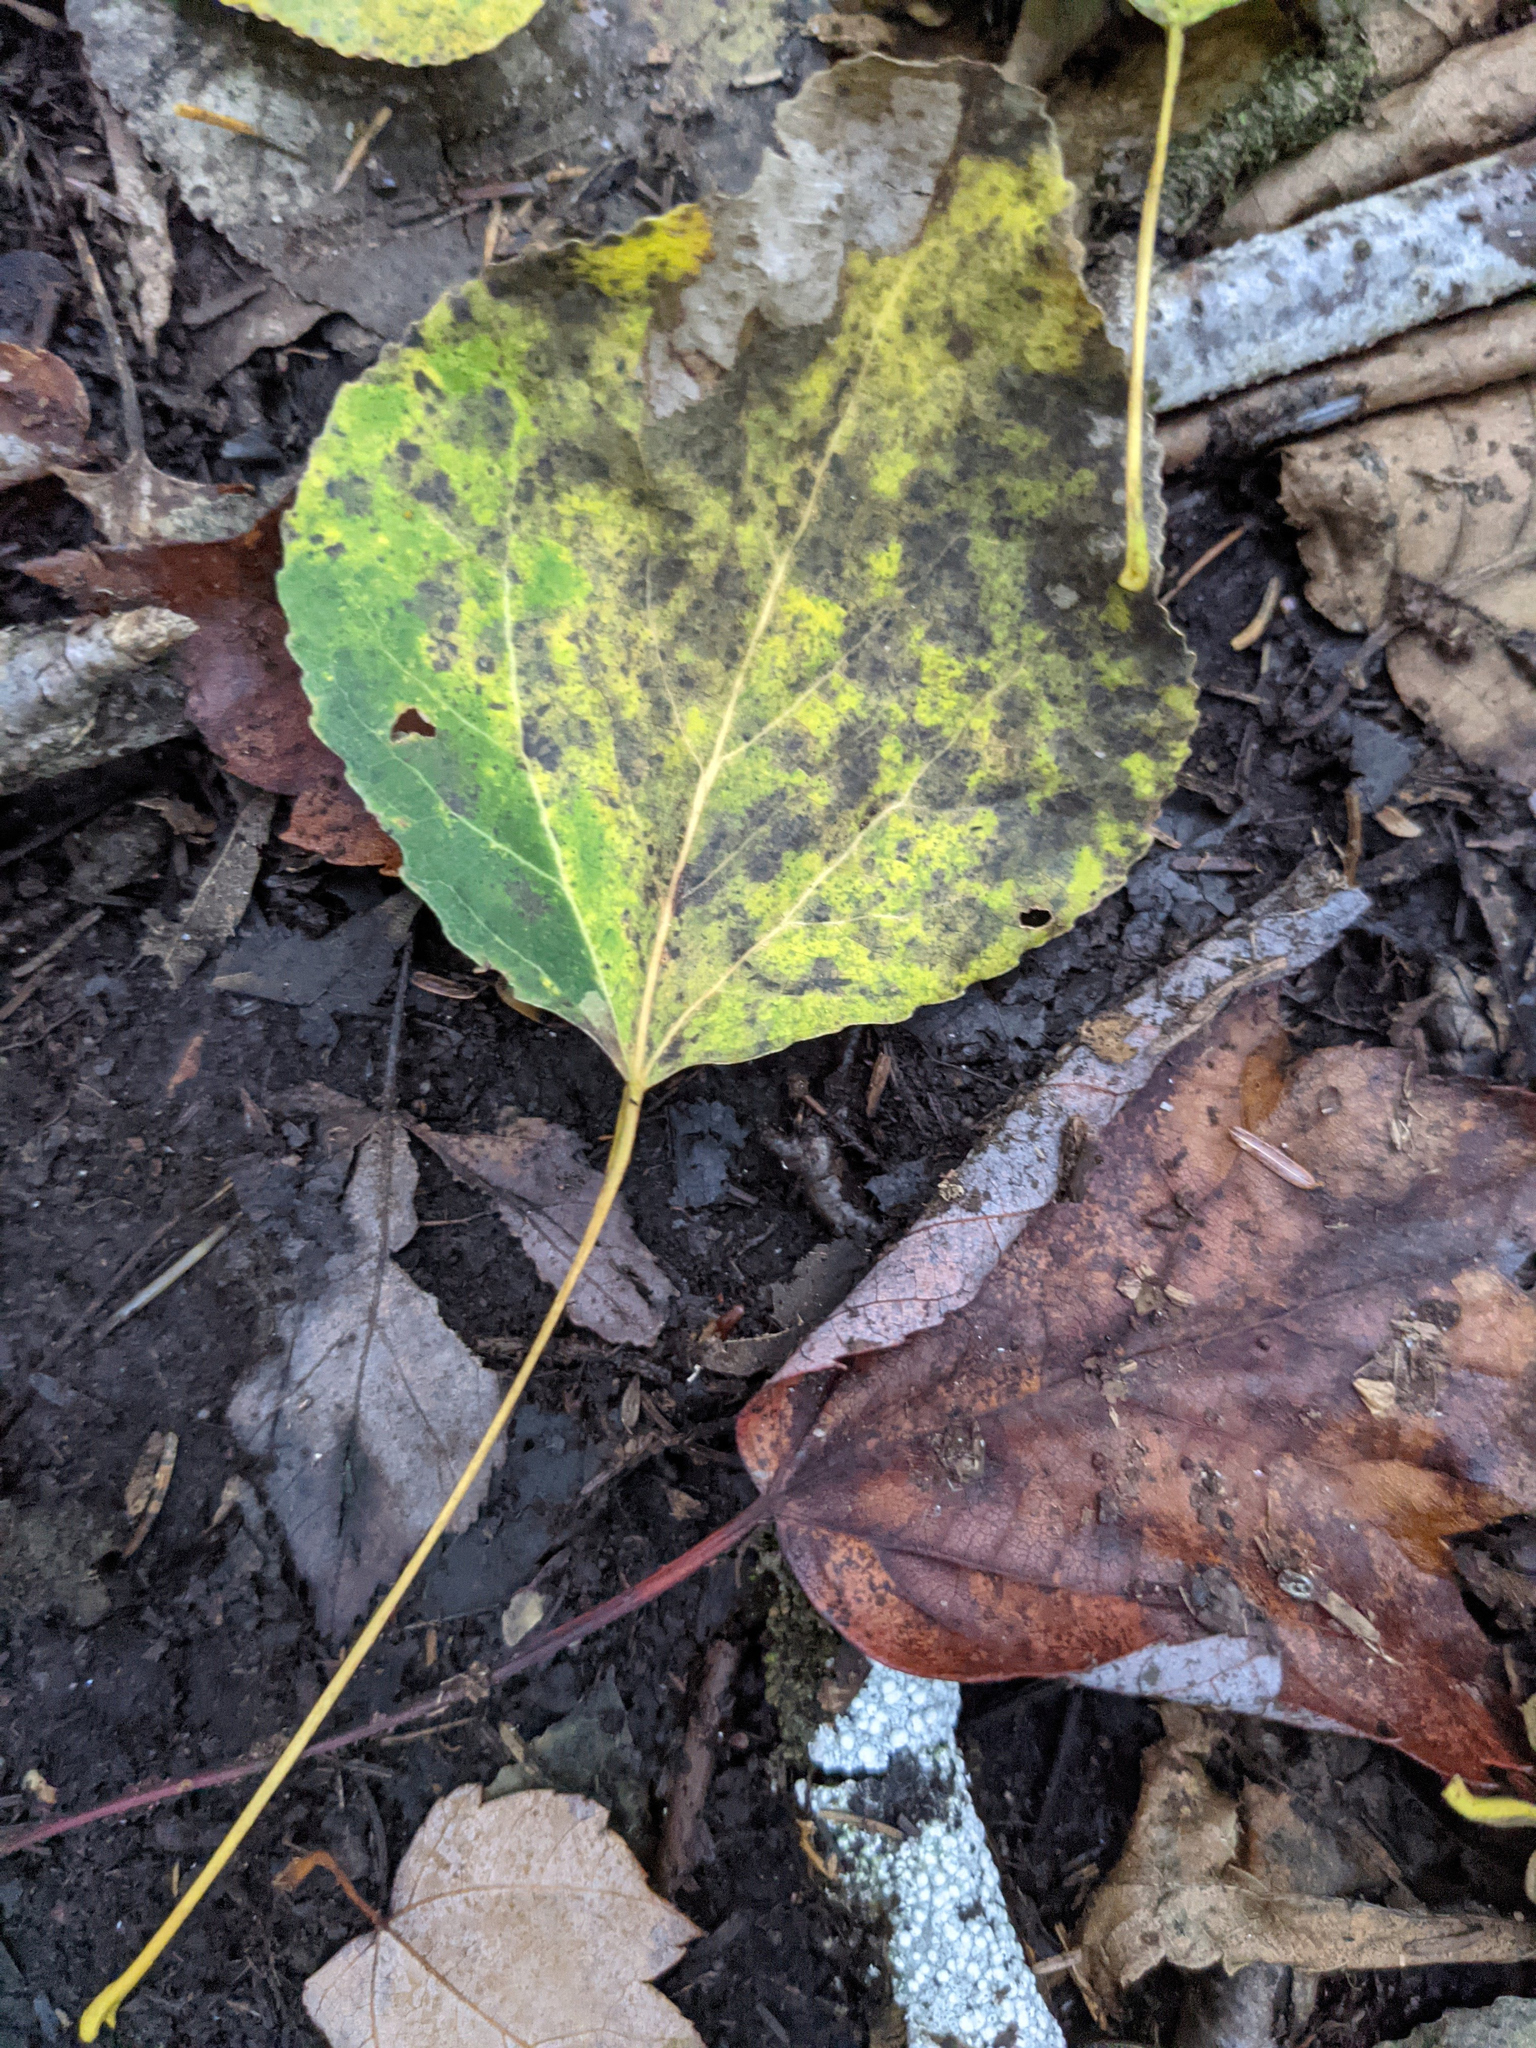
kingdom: Plantae
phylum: Tracheophyta
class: Magnoliopsida
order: Malpighiales
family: Salicaceae
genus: Populus
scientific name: Populus tremuloides
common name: Quaking aspen
